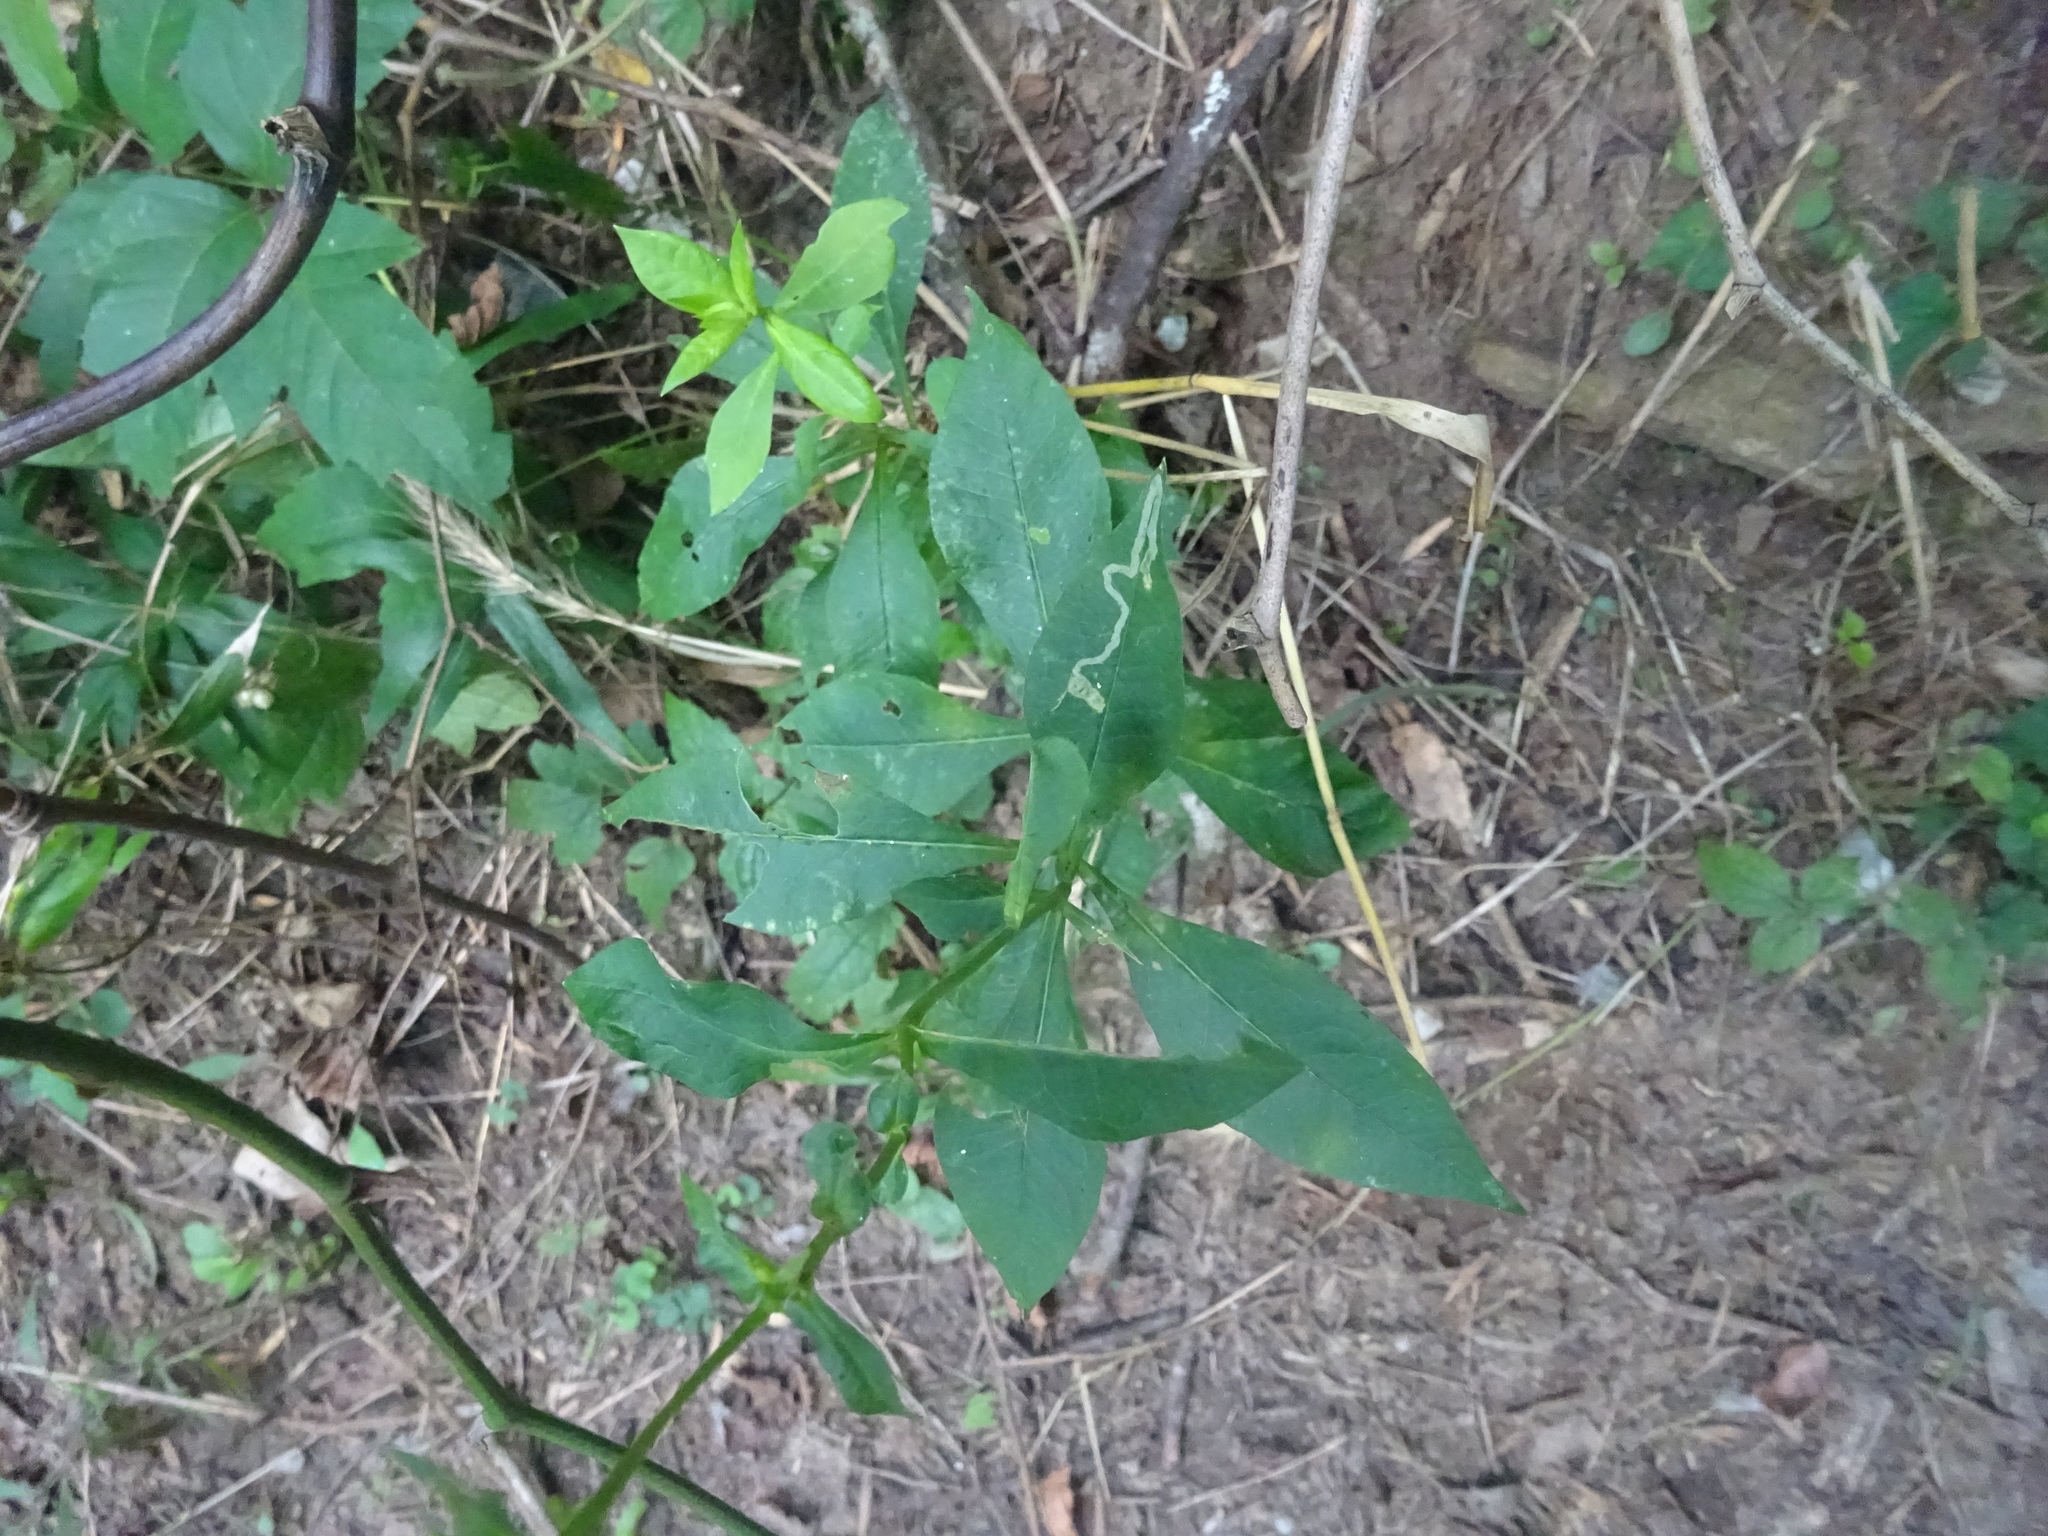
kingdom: Plantae
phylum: Tracheophyta
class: Magnoliopsida
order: Ericales
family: Polemoniaceae
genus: Phlox
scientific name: Phlox paniculata
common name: Fall phlox
